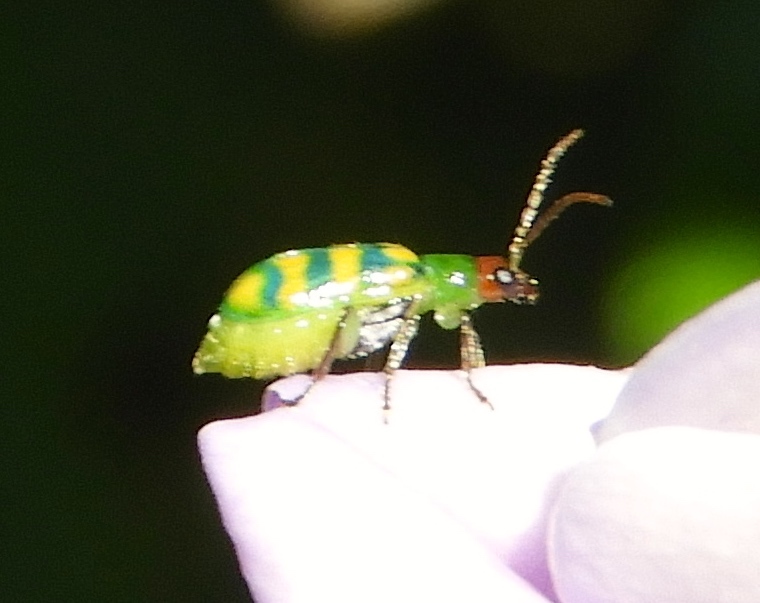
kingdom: Animalia
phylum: Arthropoda
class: Insecta
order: Coleoptera
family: Chrysomelidae
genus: Diabrotica
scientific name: Diabrotica balteata
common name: Leaf beetle
